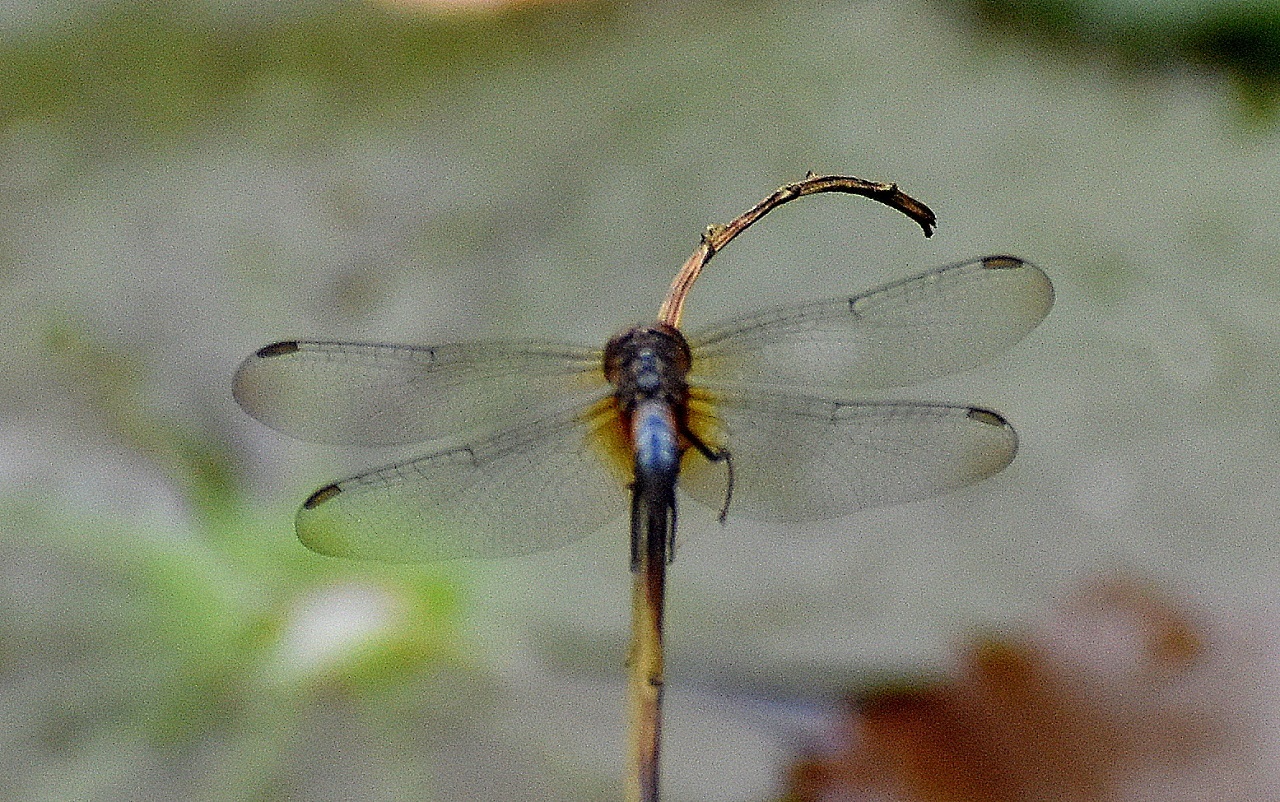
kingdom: Animalia
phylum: Arthropoda
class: Insecta
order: Odonata
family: Libellulidae
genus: Brachydiplax
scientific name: Brachydiplax chalybea
